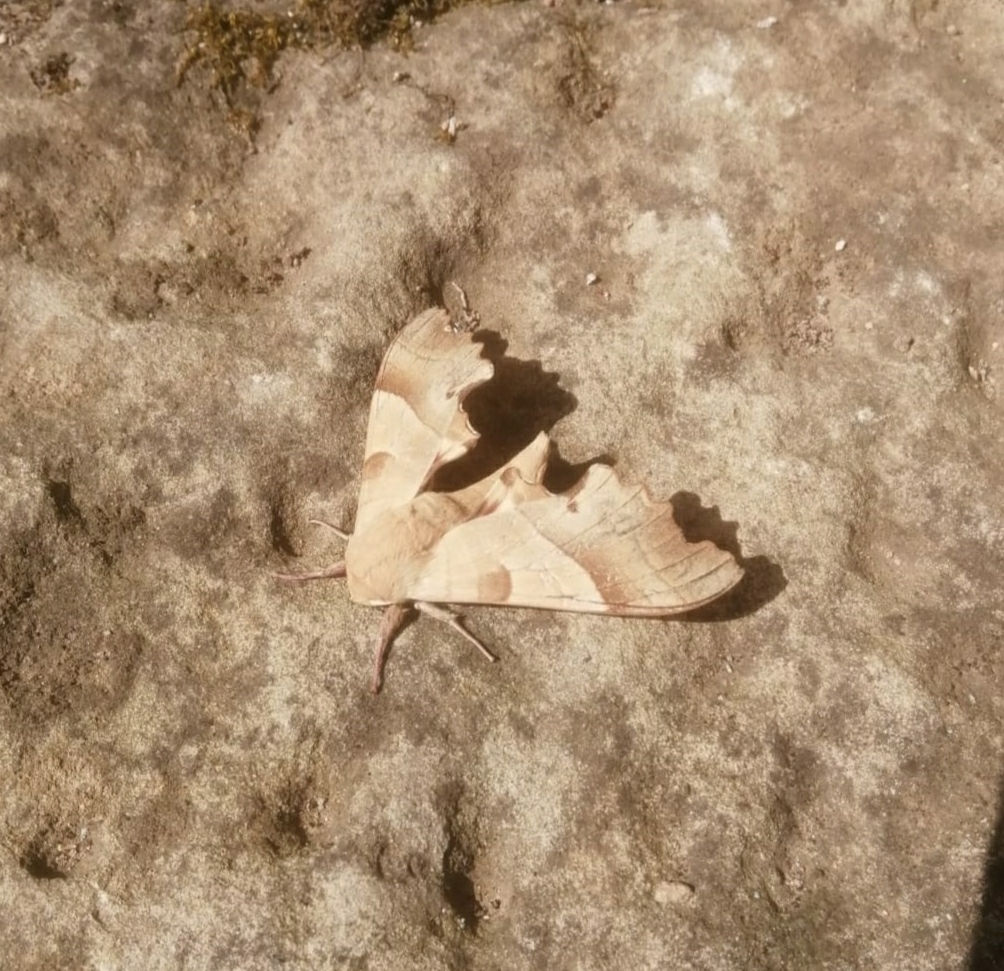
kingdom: Animalia
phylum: Arthropoda
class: Insecta
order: Lepidoptera
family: Sphingidae
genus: Marumba
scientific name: Marumba quercus
